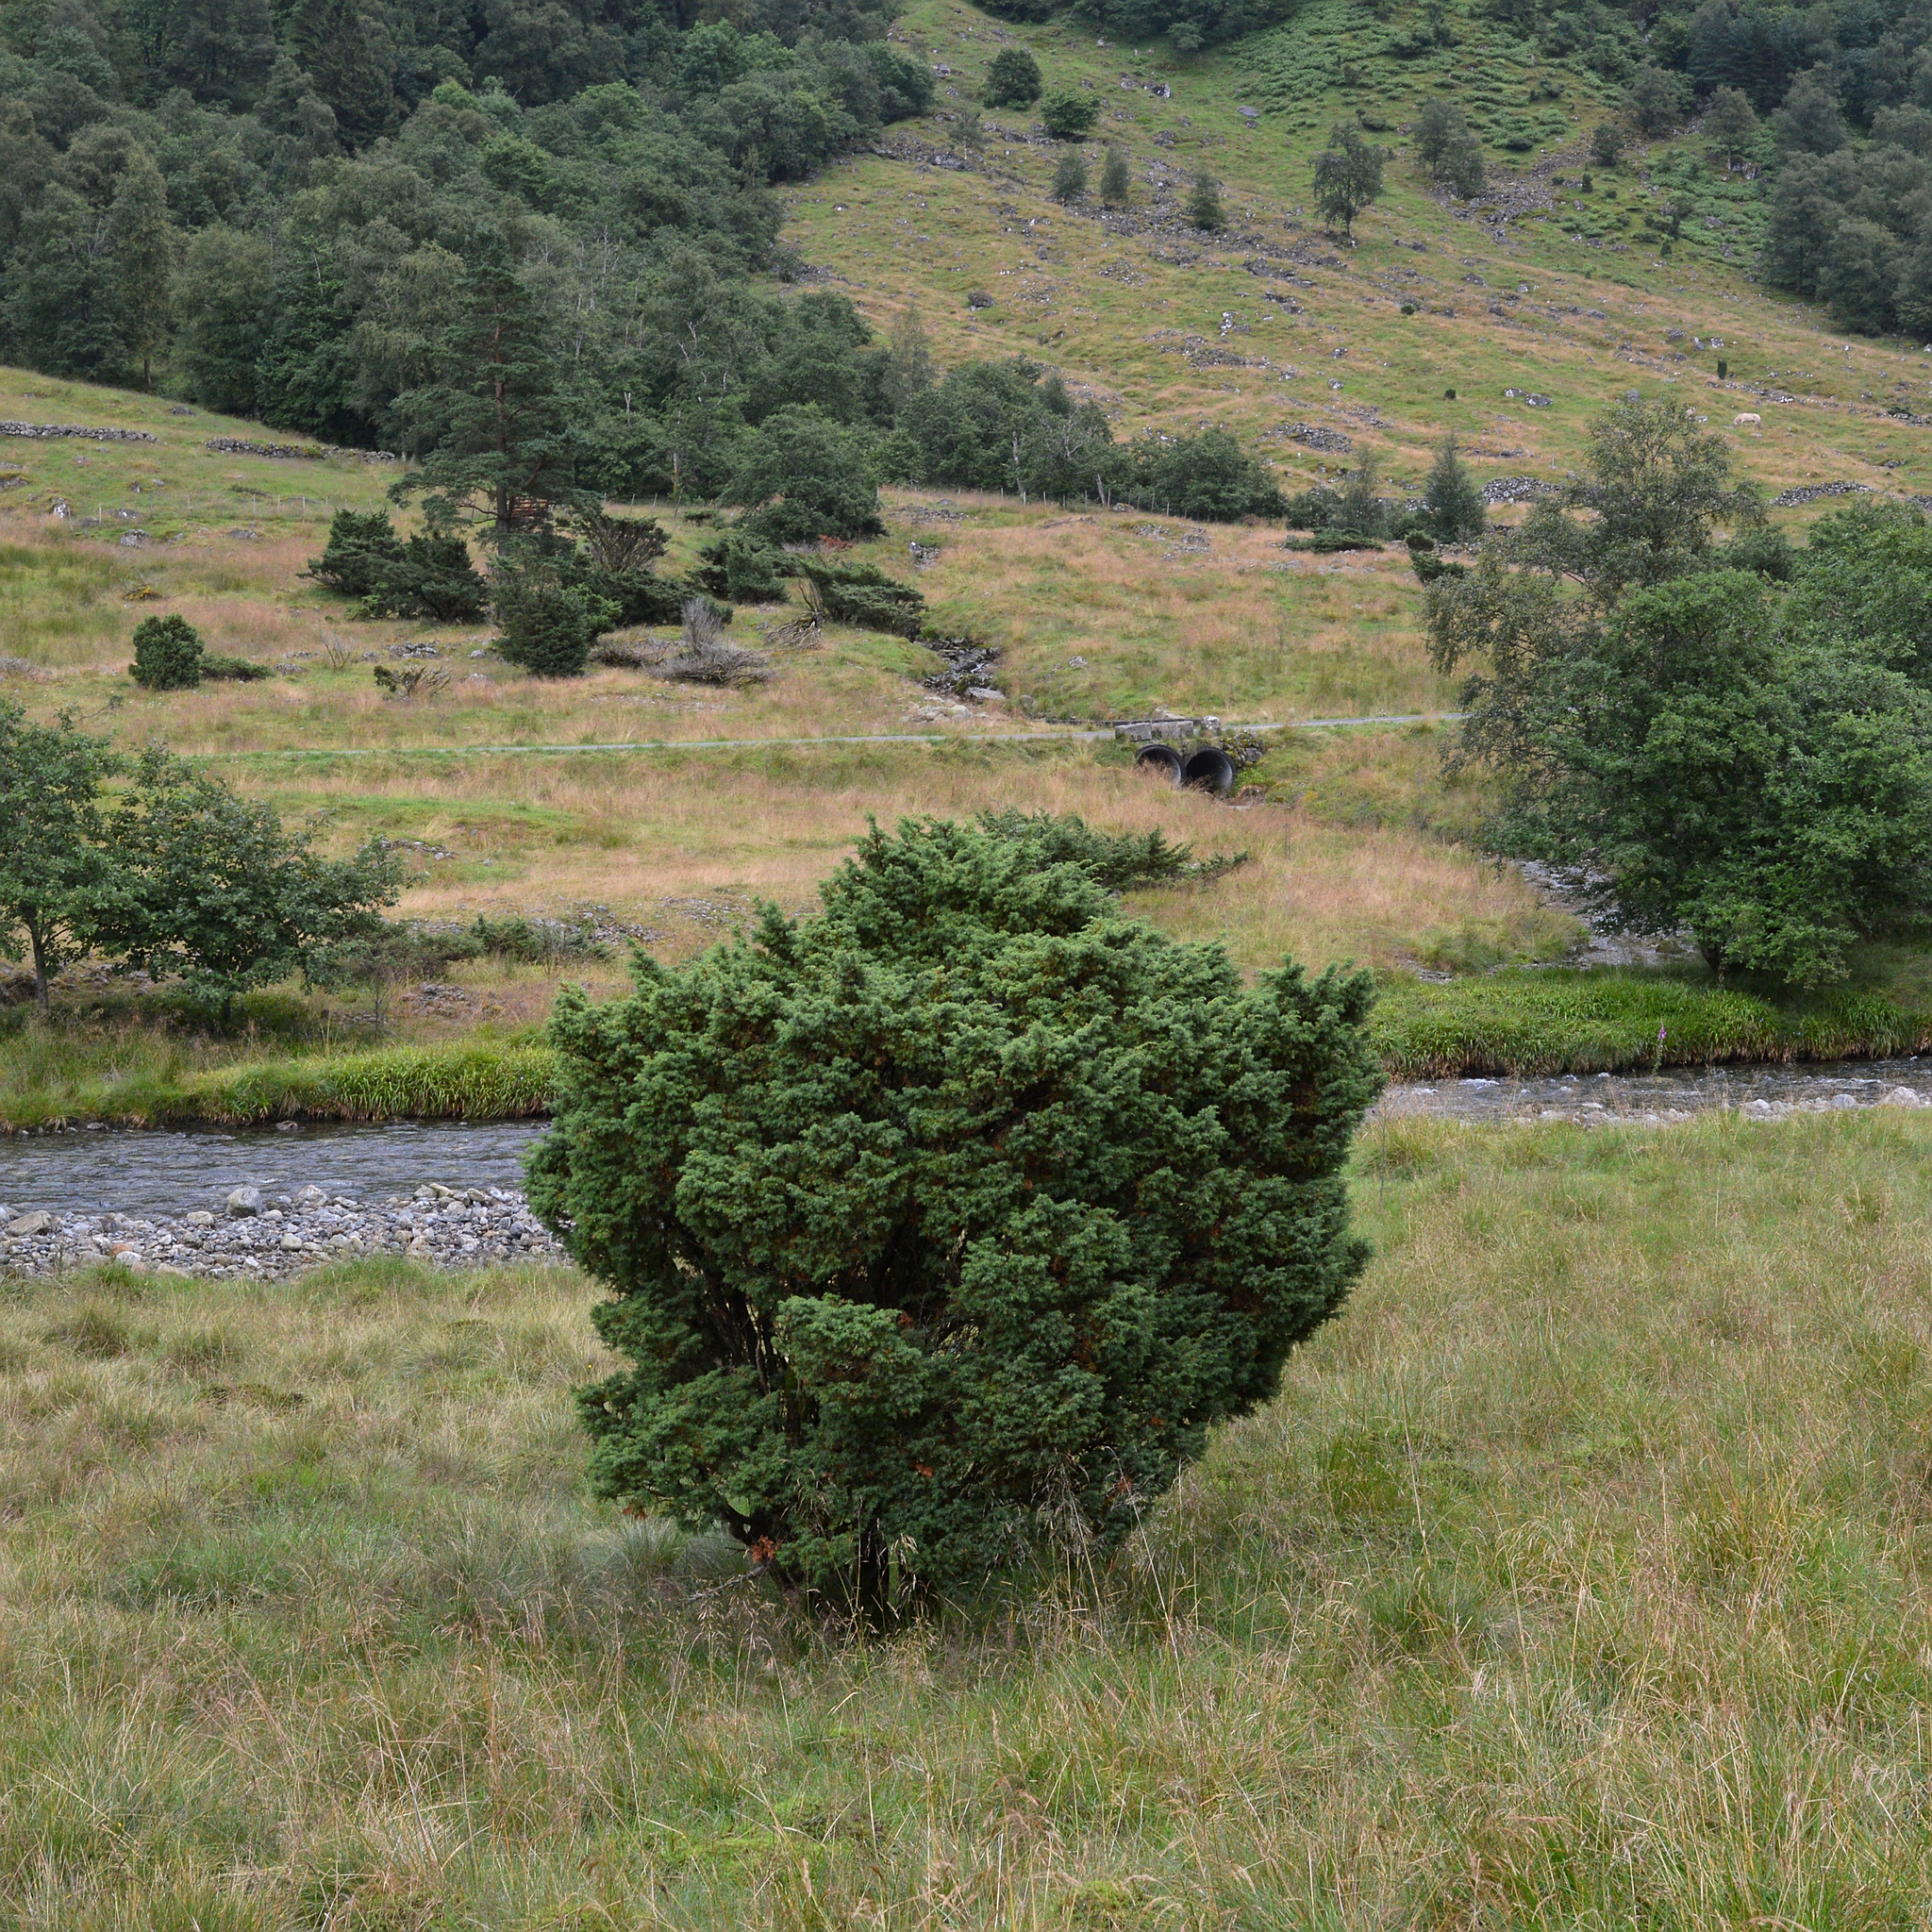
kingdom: Plantae
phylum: Tracheophyta
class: Pinopsida
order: Pinales
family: Cupressaceae
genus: Juniperus
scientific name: Juniperus communis
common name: Common juniper
